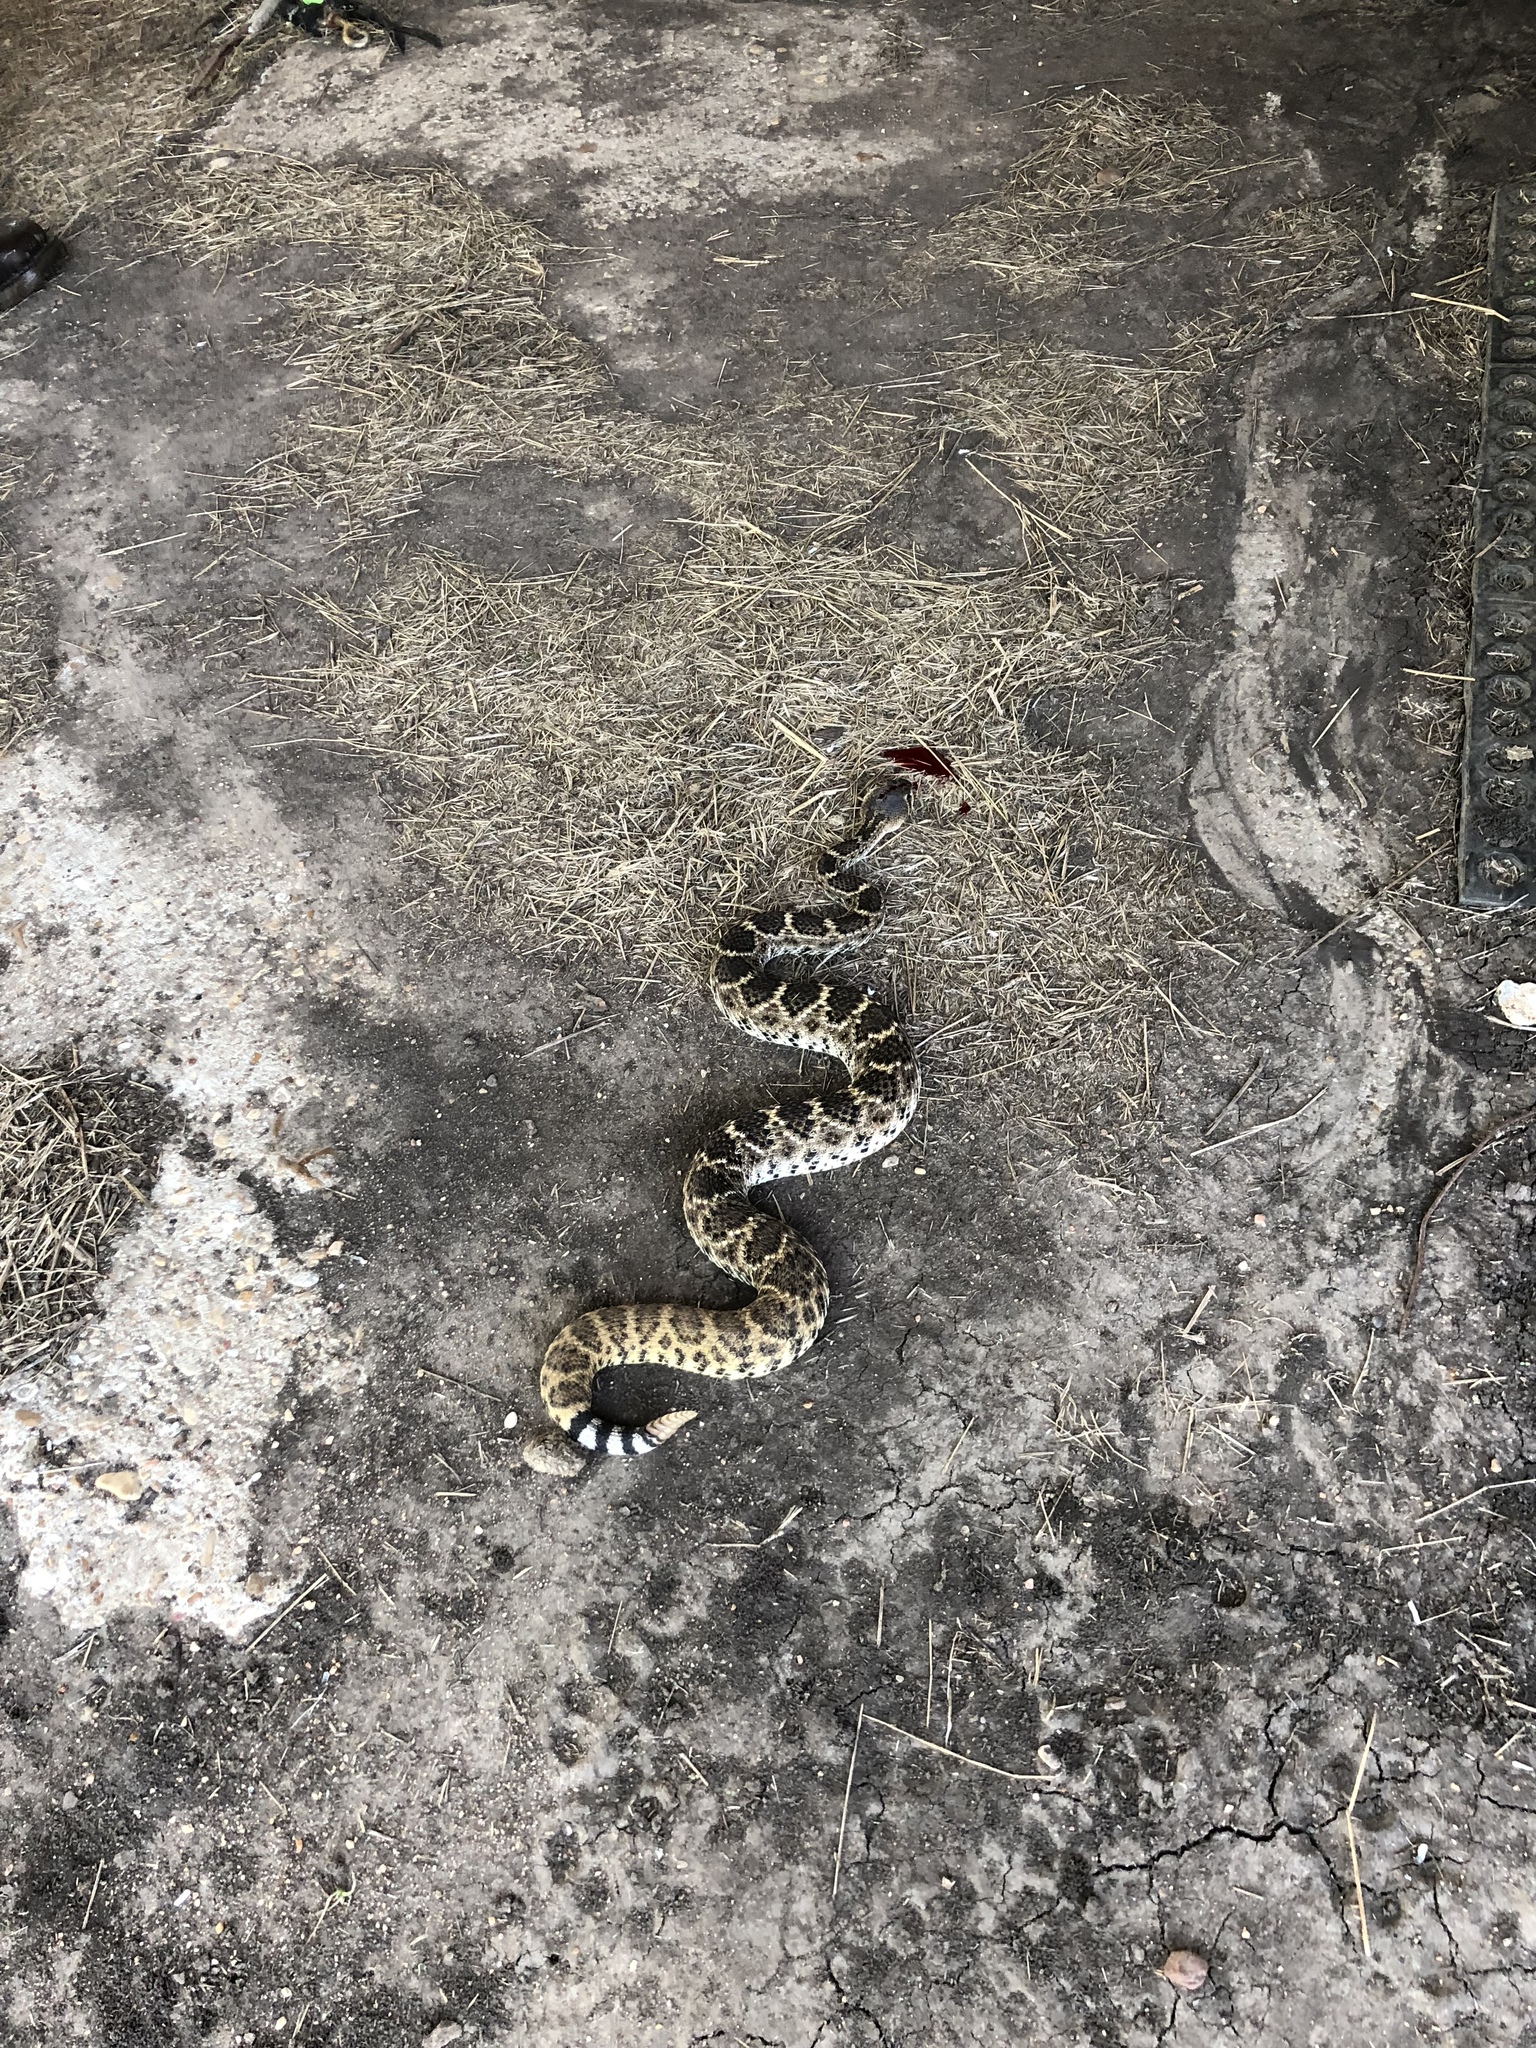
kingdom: Animalia
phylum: Chordata
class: Squamata
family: Viperidae
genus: Crotalus
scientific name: Crotalus atrox
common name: Western diamond-backed rattlesnake
